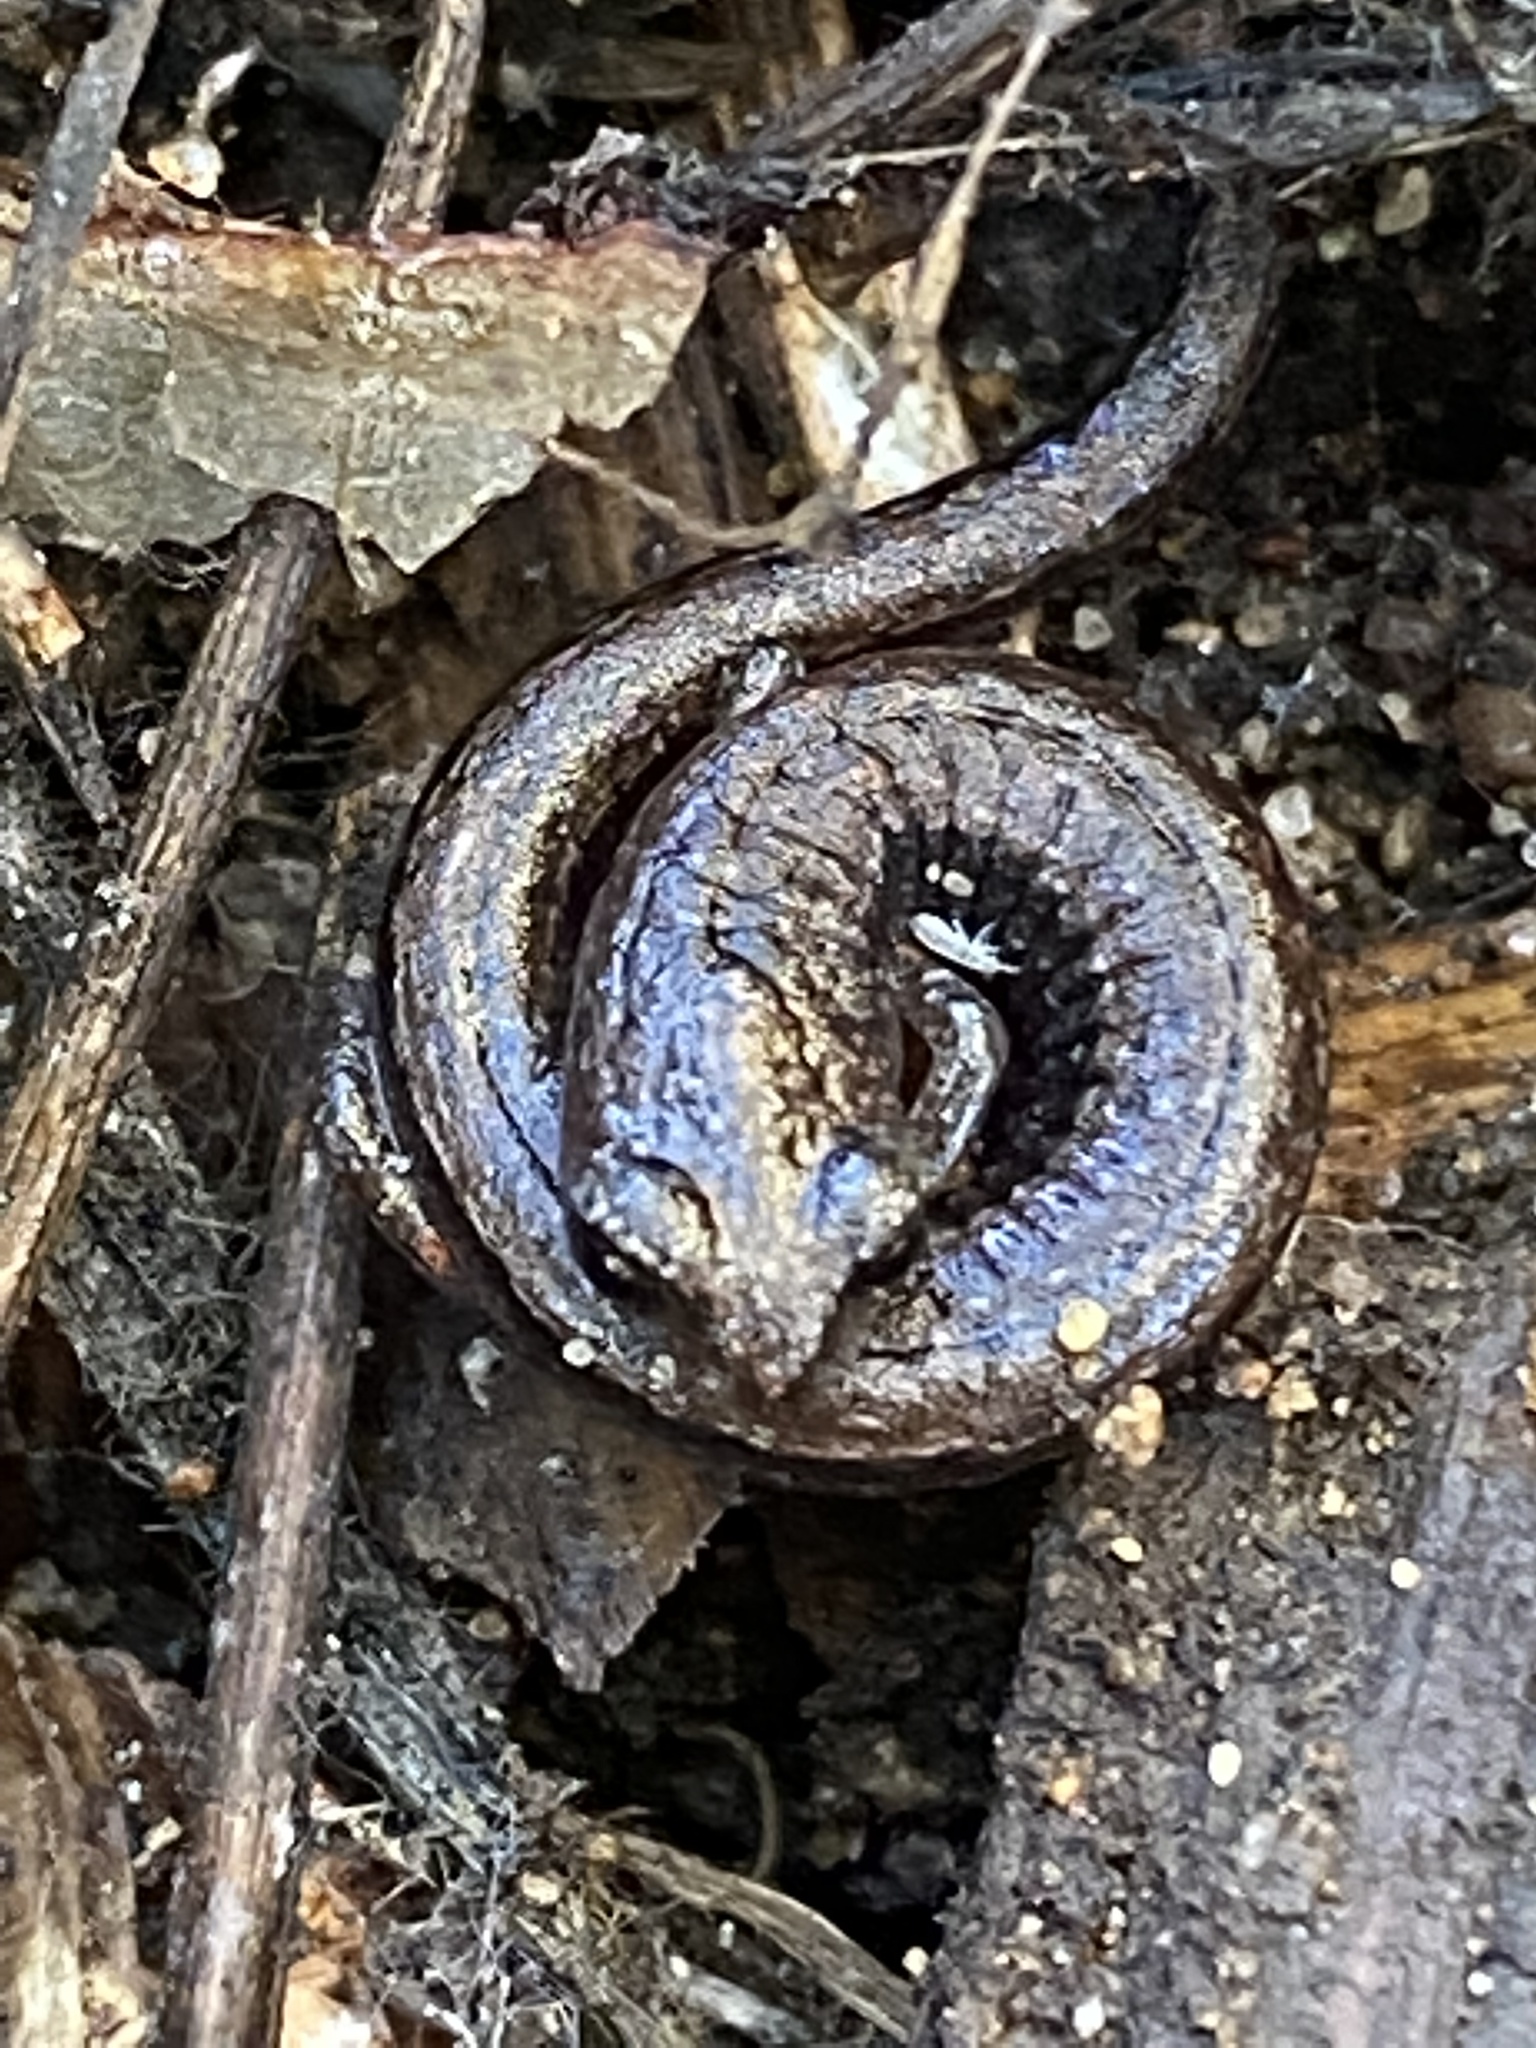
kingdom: Animalia
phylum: Chordata
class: Amphibia
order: Caudata
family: Plethodontidae
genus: Batrachoseps
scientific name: Batrachoseps attenuatus
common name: California slender salamander
